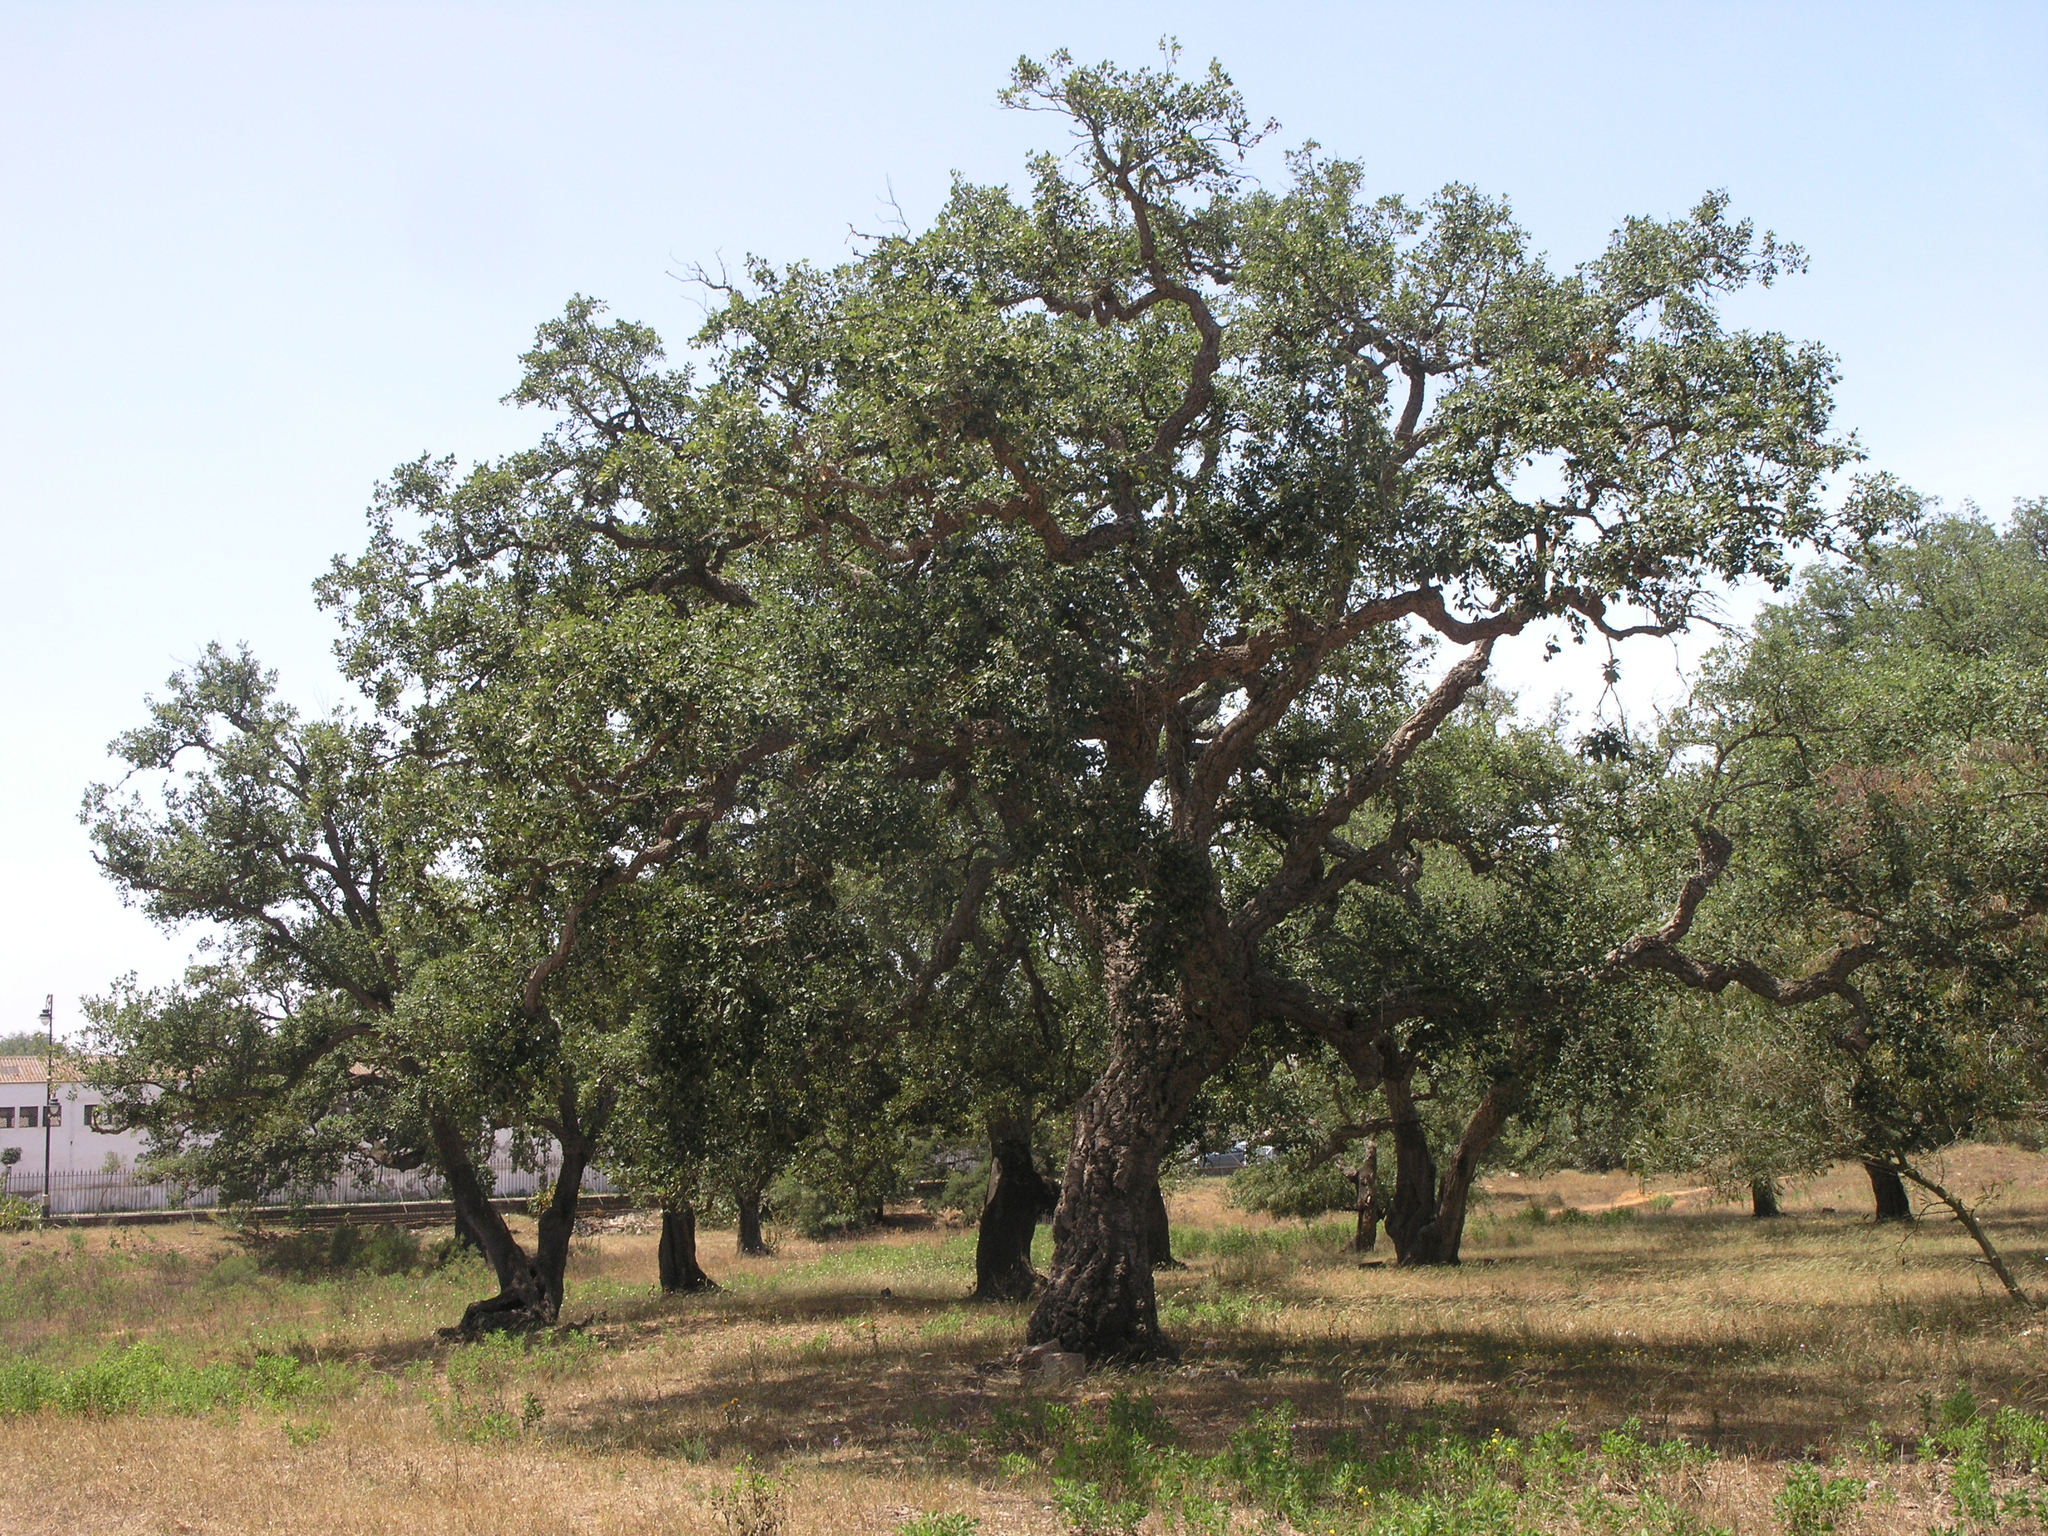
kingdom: Plantae
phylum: Tracheophyta
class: Magnoliopsida
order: Fagales
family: Fagaceae
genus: Quercus
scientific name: Quercus suber
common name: Cork oak
